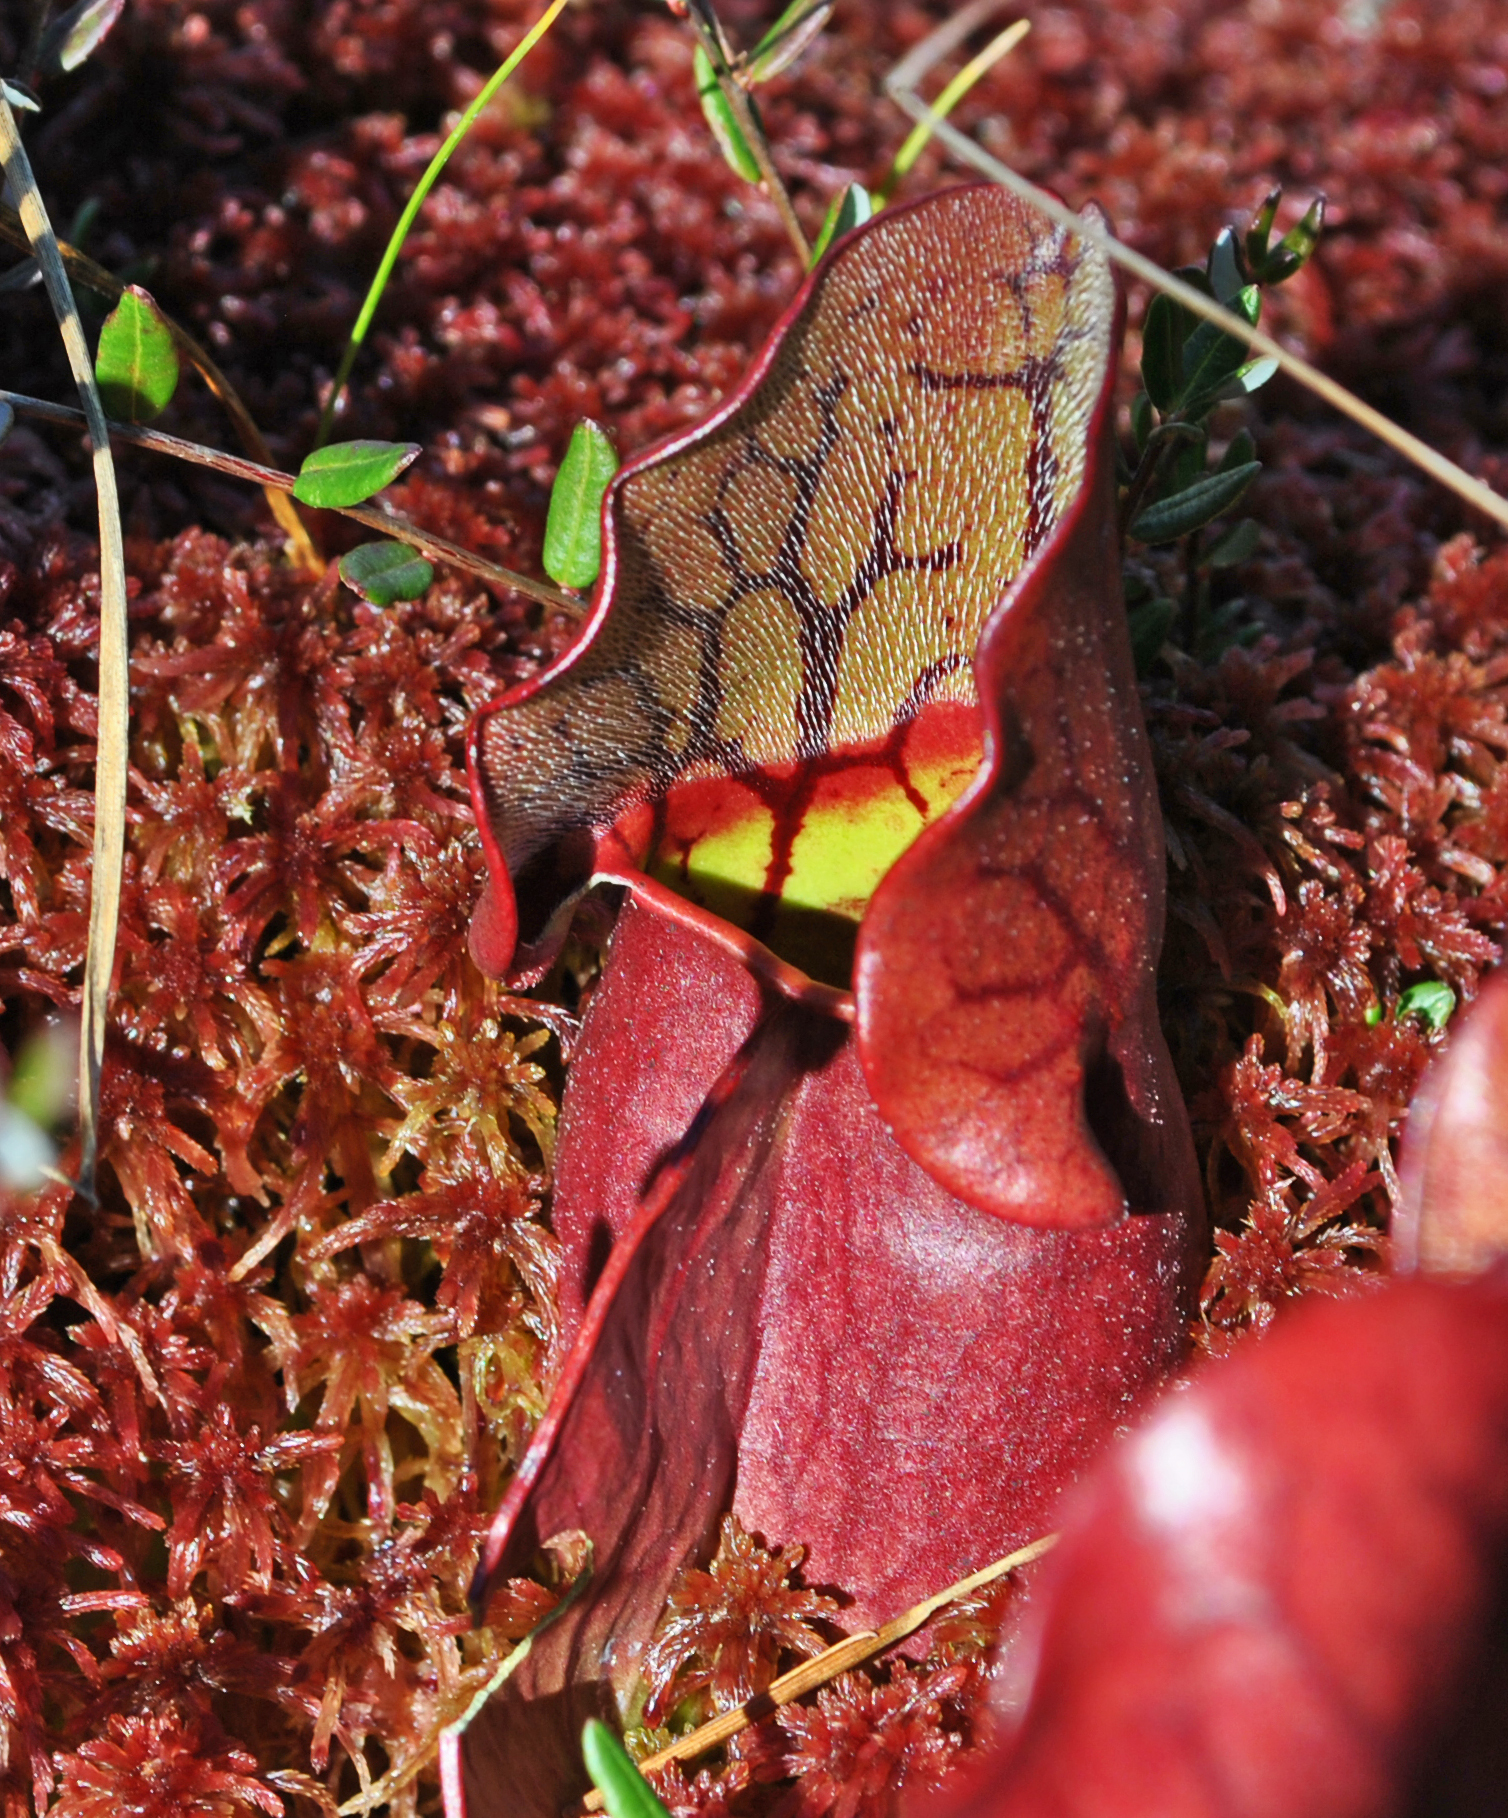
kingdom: Plantae
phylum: Tracheophyta
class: Magnoliopsida
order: Ericales
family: Sarraceniaceae
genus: Sarracenia
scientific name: Sarracenia purpurea
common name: Pitcherplant
